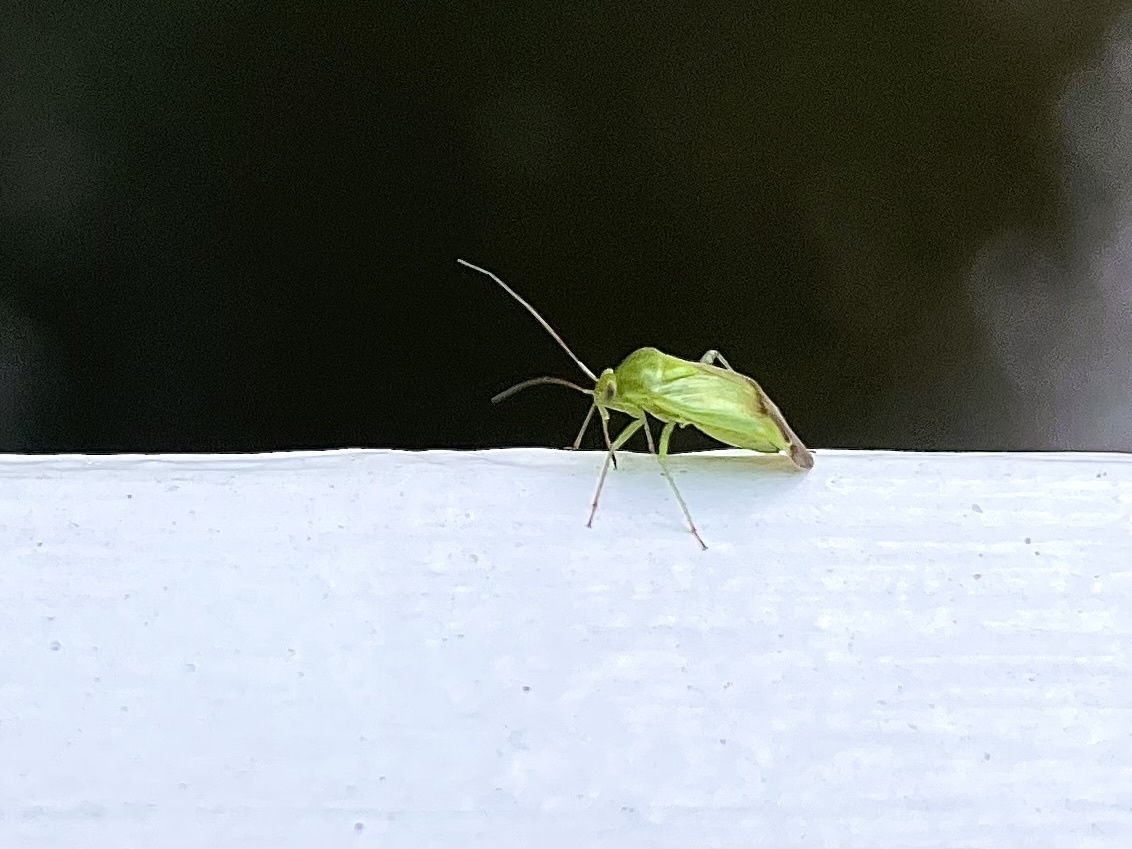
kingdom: Animalia
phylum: Arthropoda
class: Insecta
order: Hemiptera
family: Miridae
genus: Neolygus
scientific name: Neolygus contaminatus
